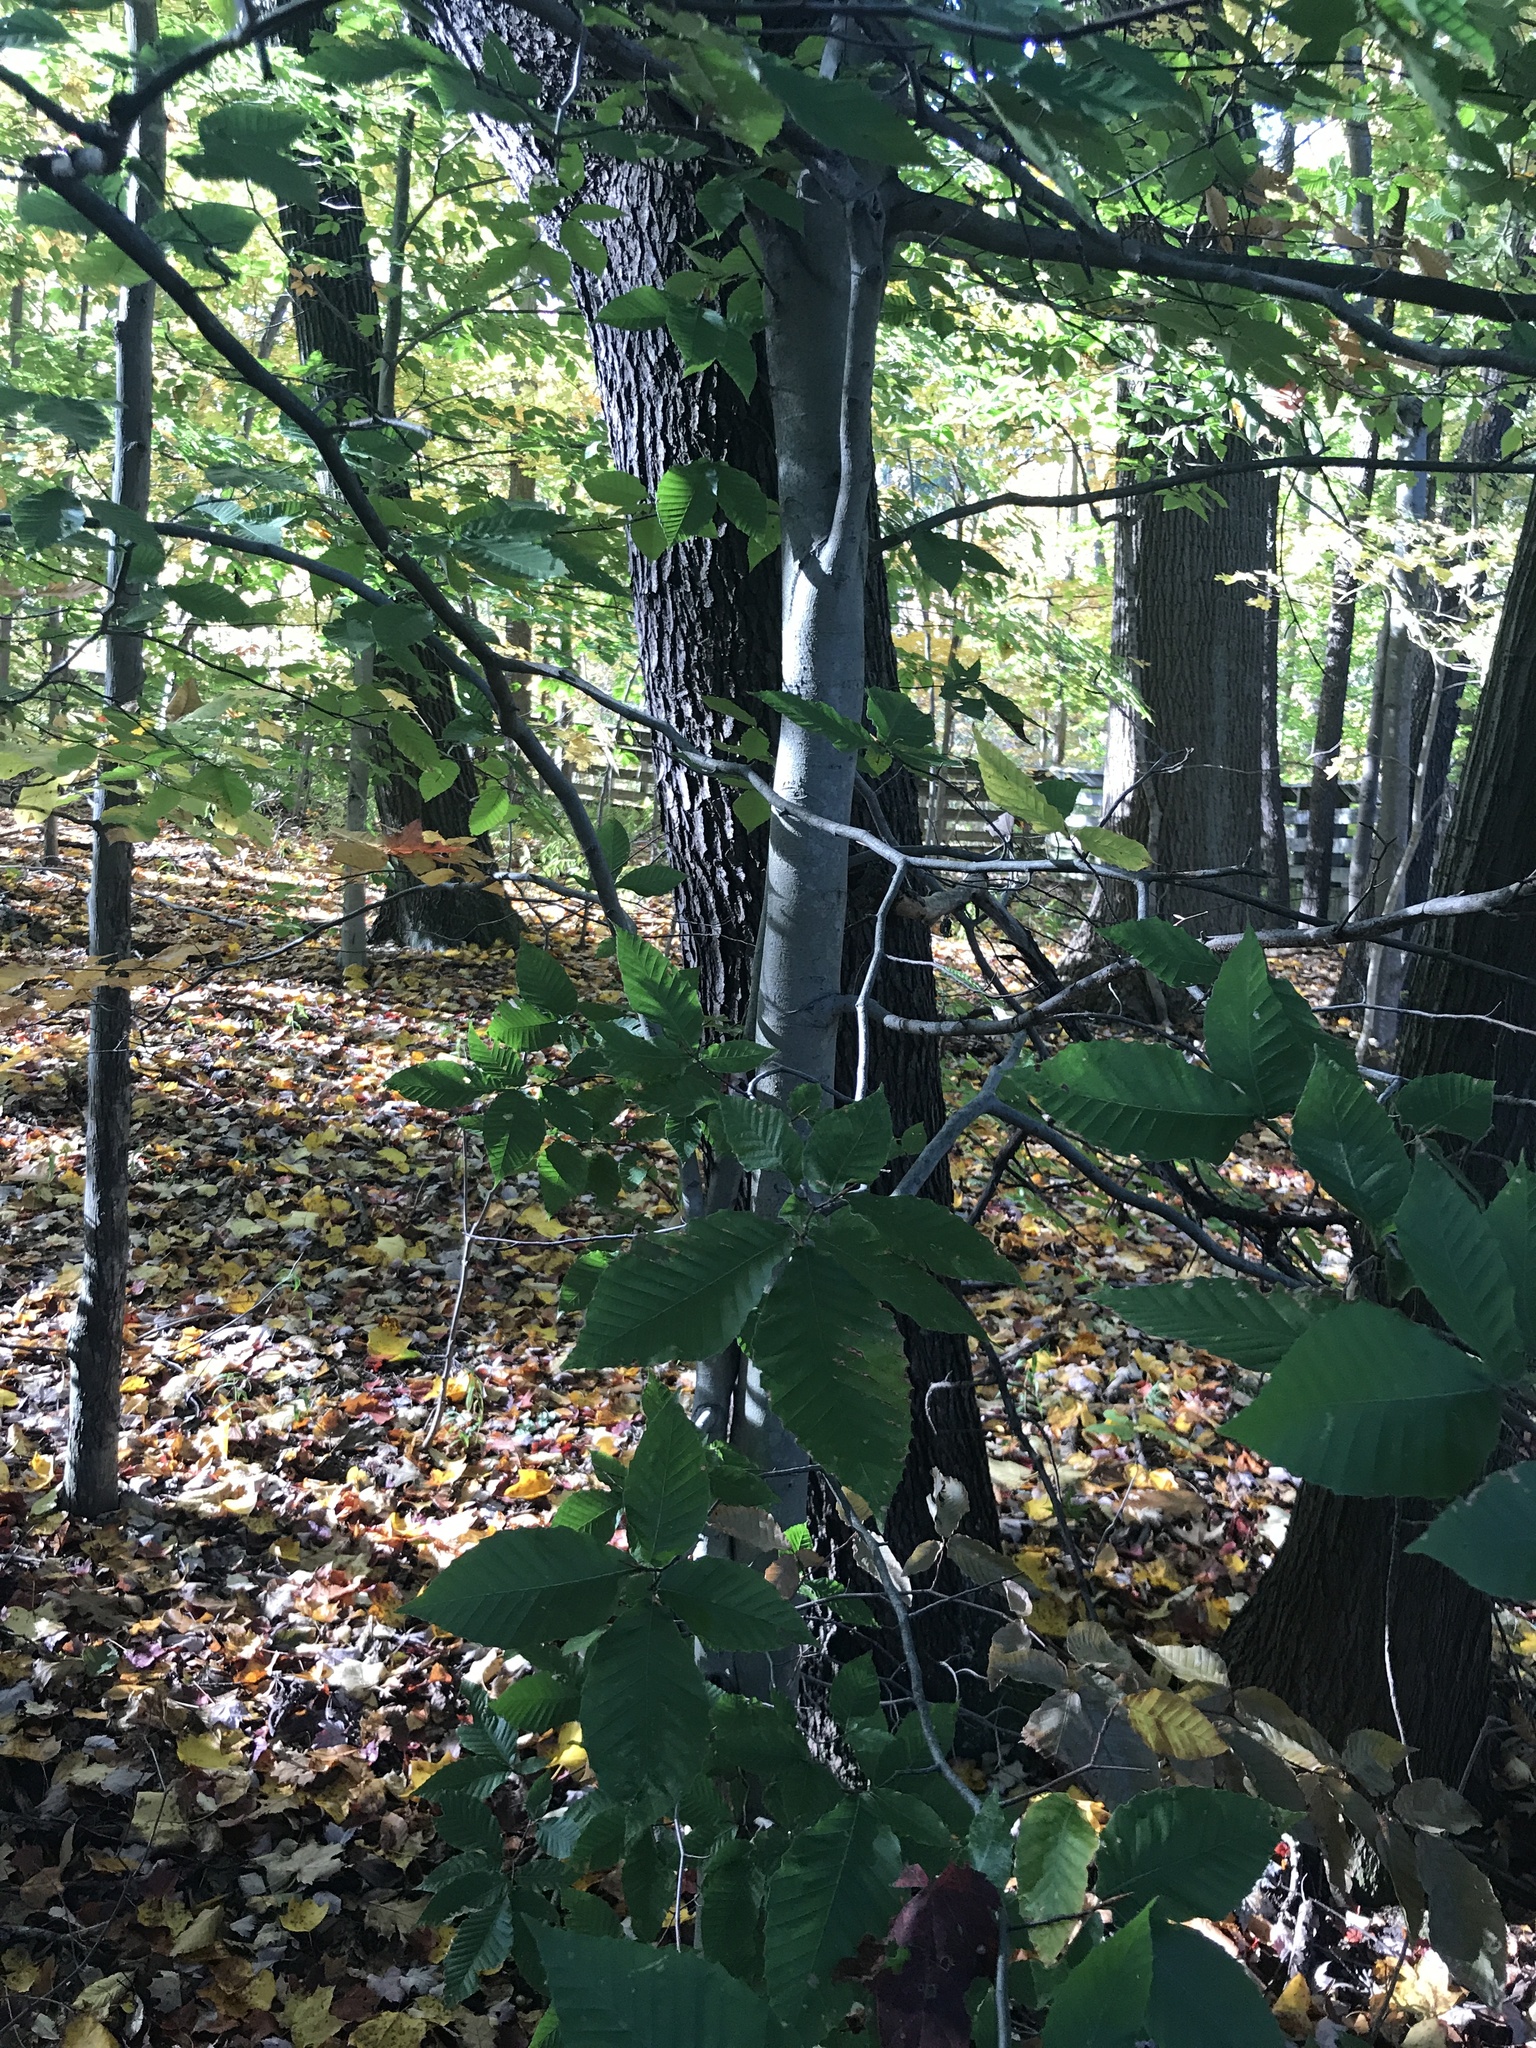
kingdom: Plantae
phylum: Tracheophyta
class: Magnoliopsida
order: Fagales
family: Fagaceae
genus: Fagus
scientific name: Fagus grandifolia
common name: American beech
